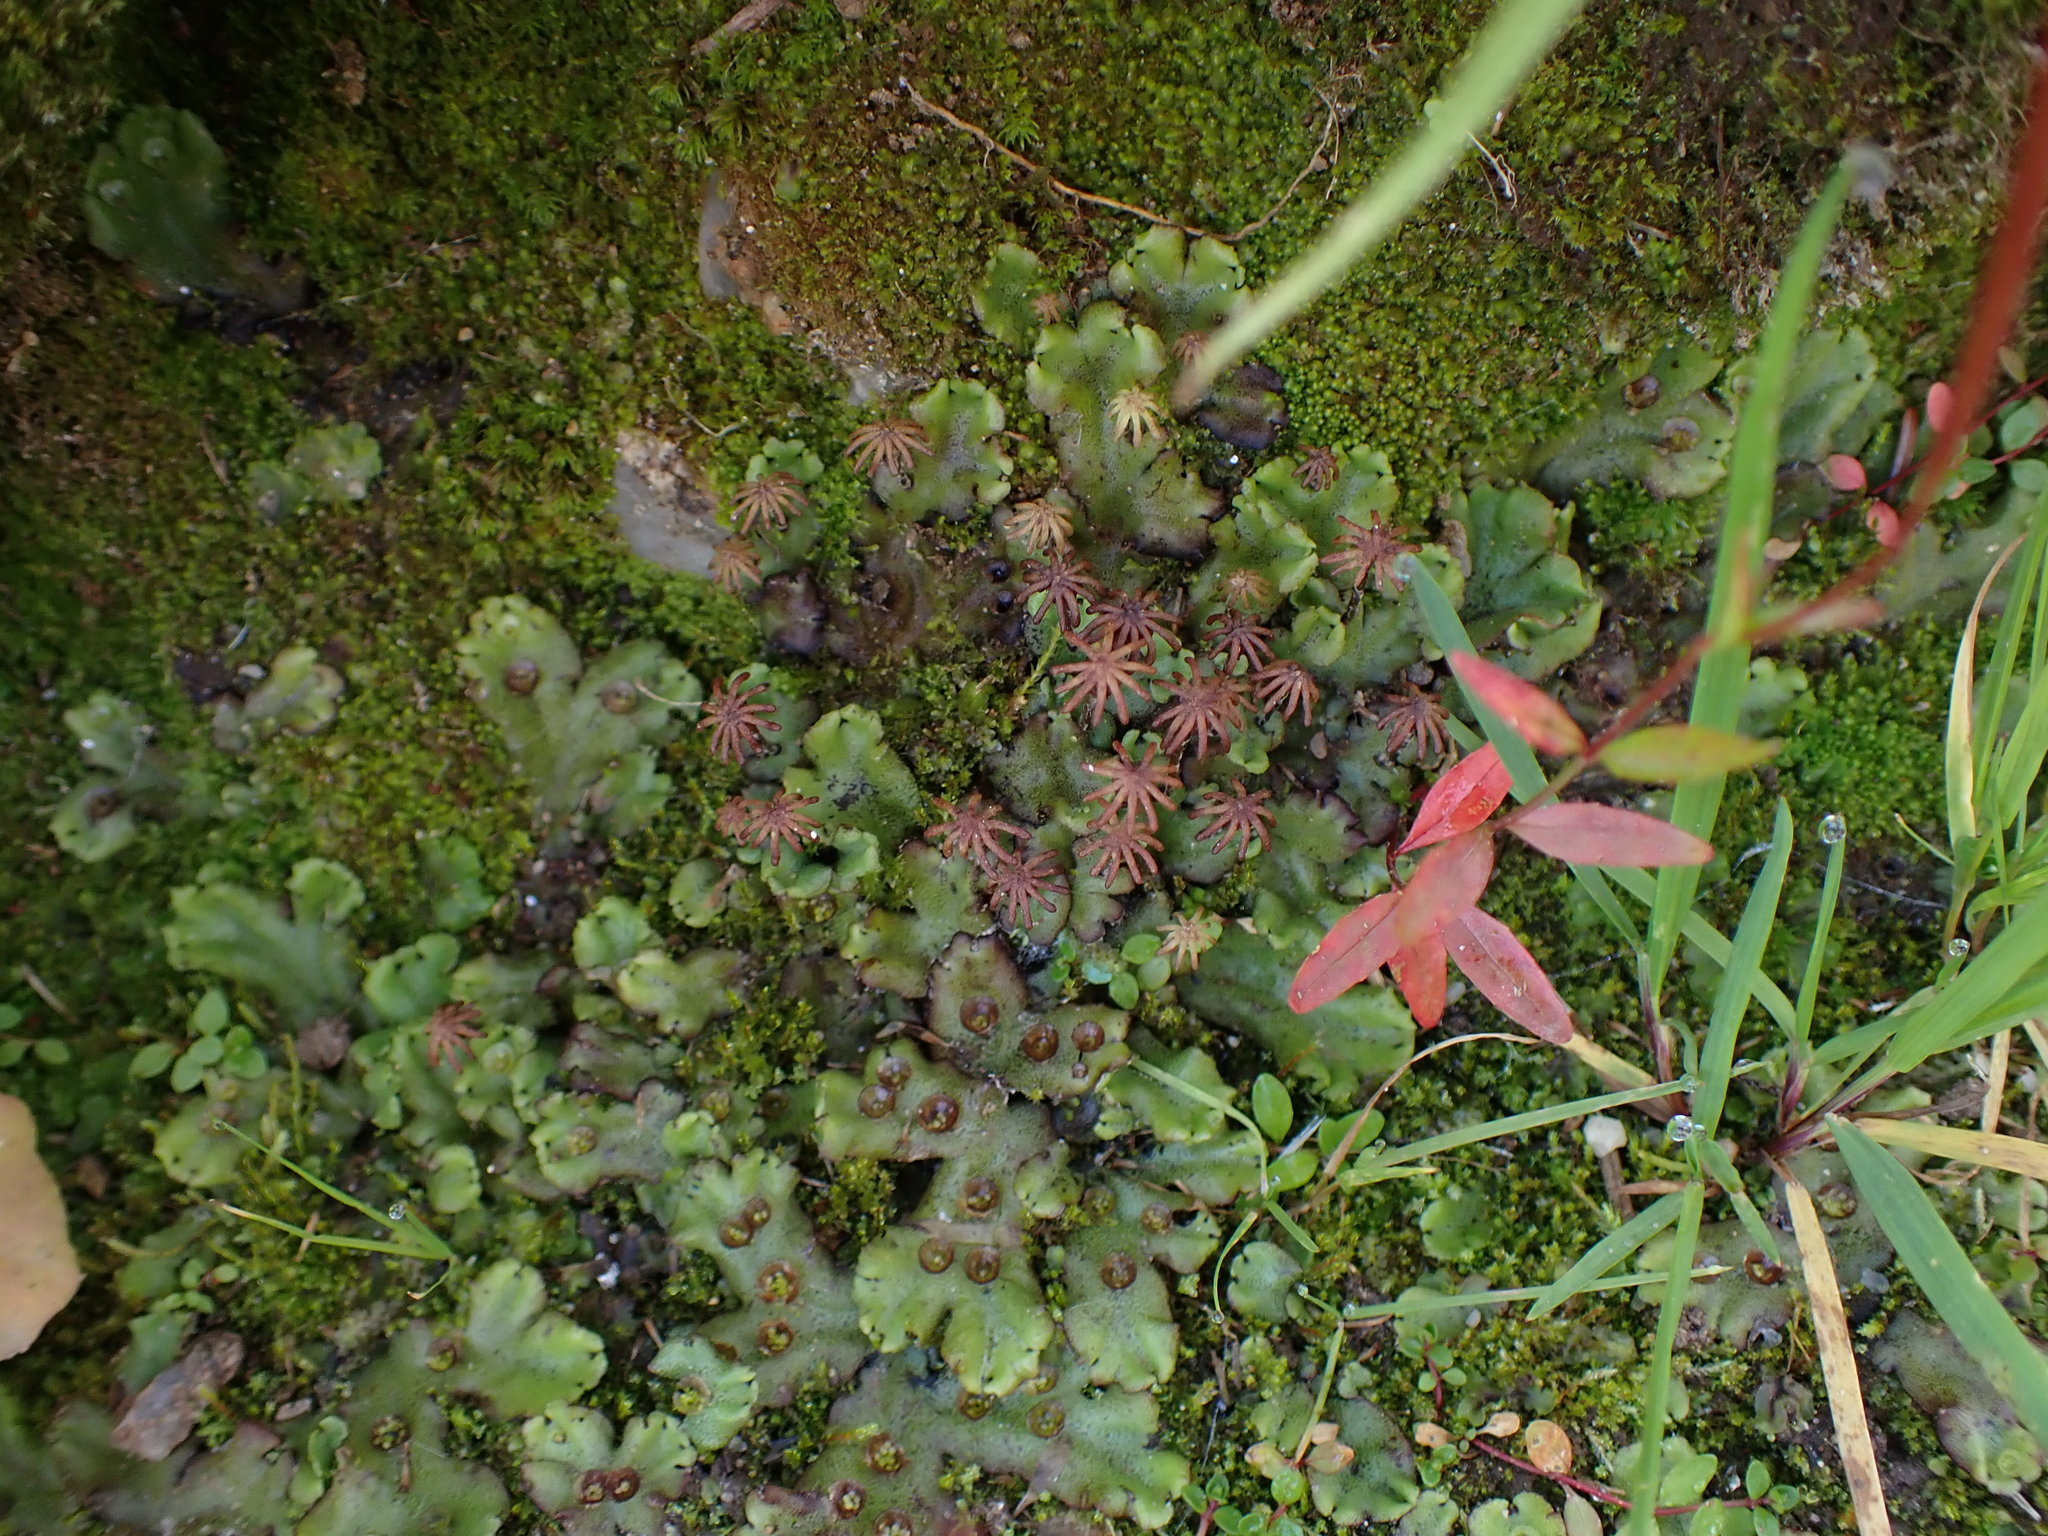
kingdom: Plantae
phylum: Marchantiophyta
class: Marchantiopsida
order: Marchantiales
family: Marchantiaceae
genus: Marchantia
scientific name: Marchantia polymorpha
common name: Common liverwort
